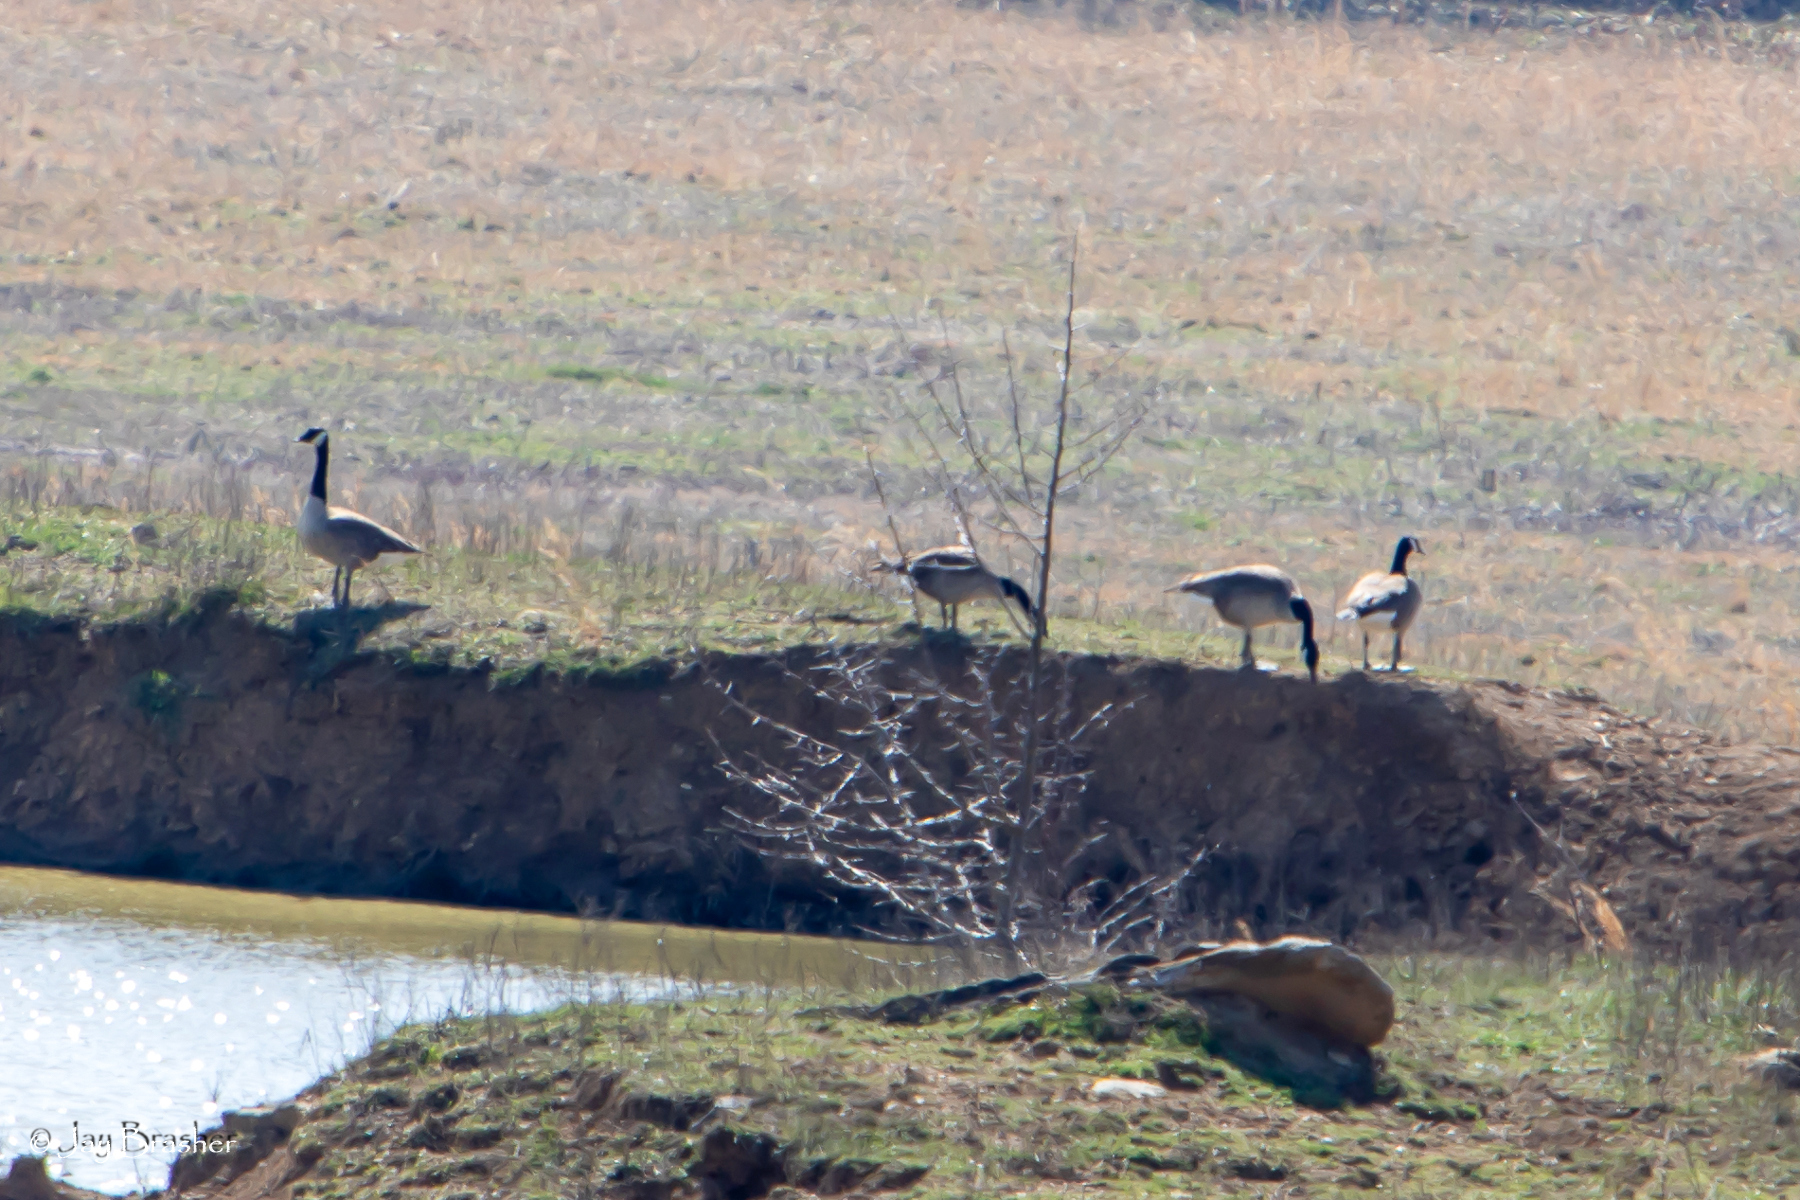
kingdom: Animalia
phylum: Chordata
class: Aves
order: Anseriformes
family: Anatidae
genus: Branta
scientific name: Branta canadensis
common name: Canada goose
